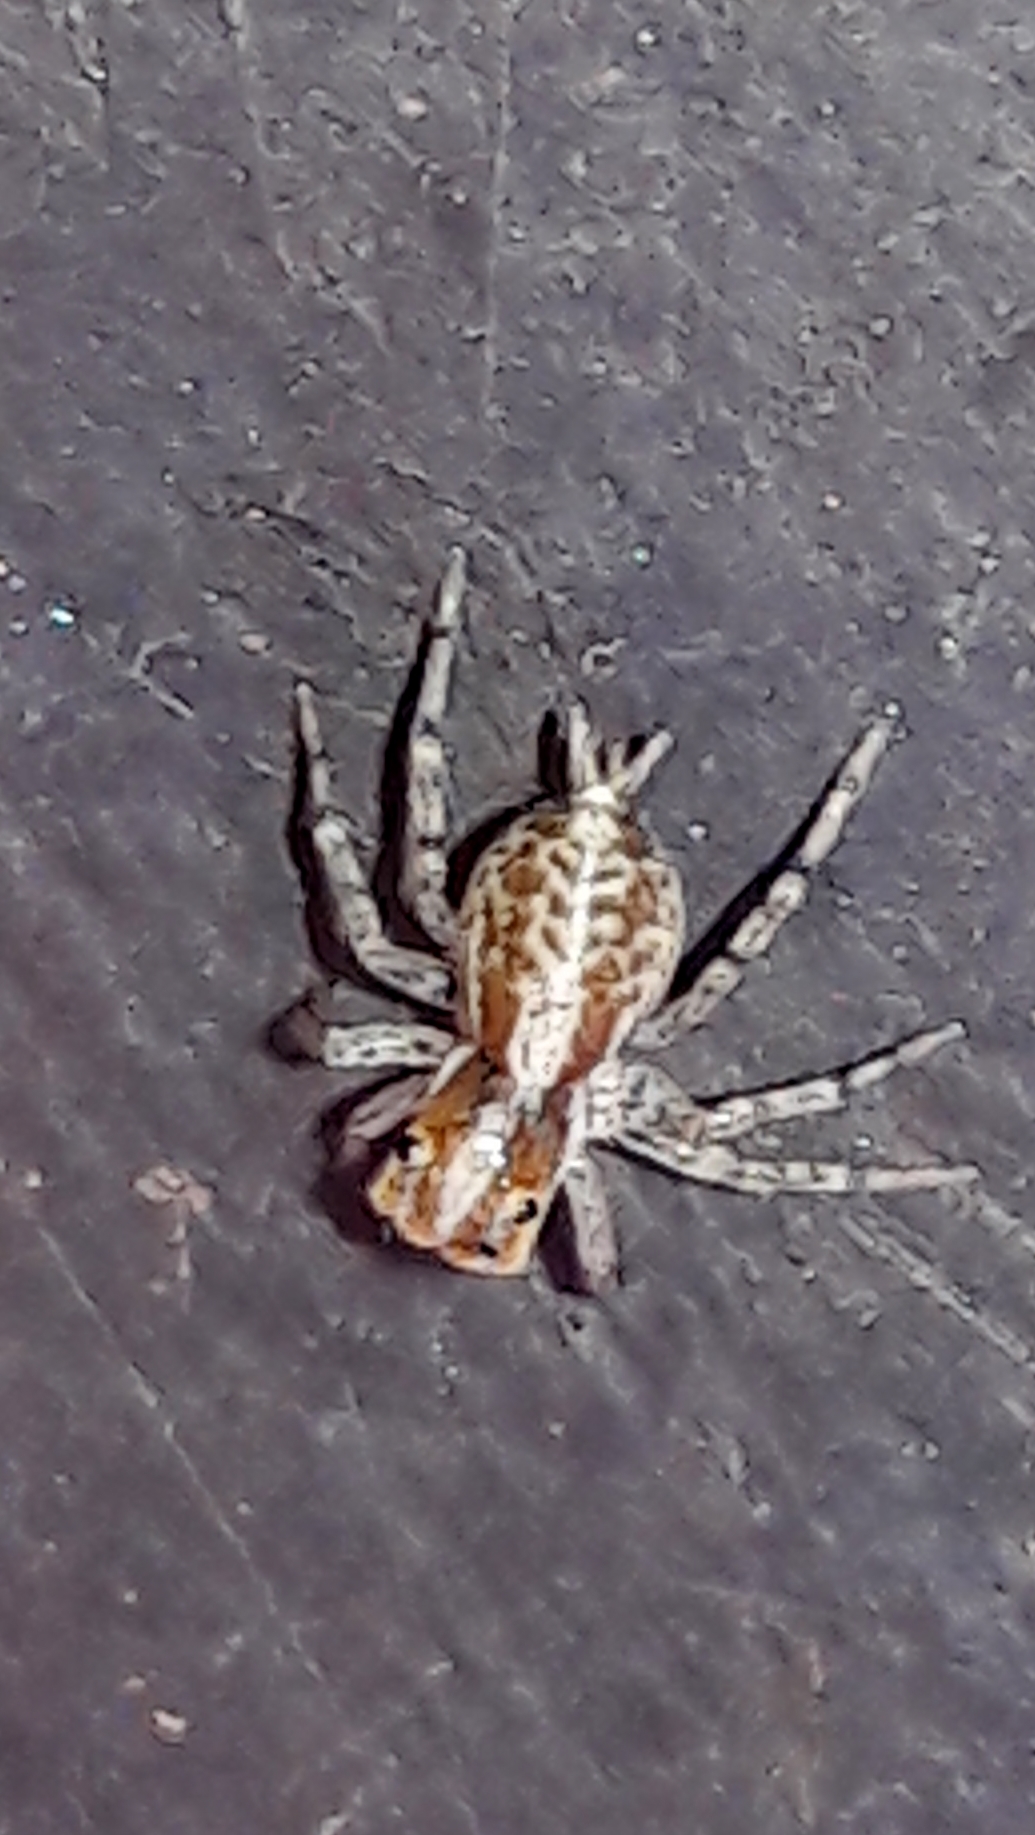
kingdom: Animalia
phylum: Arthropoda
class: Arachnida
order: Araneae
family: Salticidae
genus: Maeota
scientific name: Maeota dichrura
